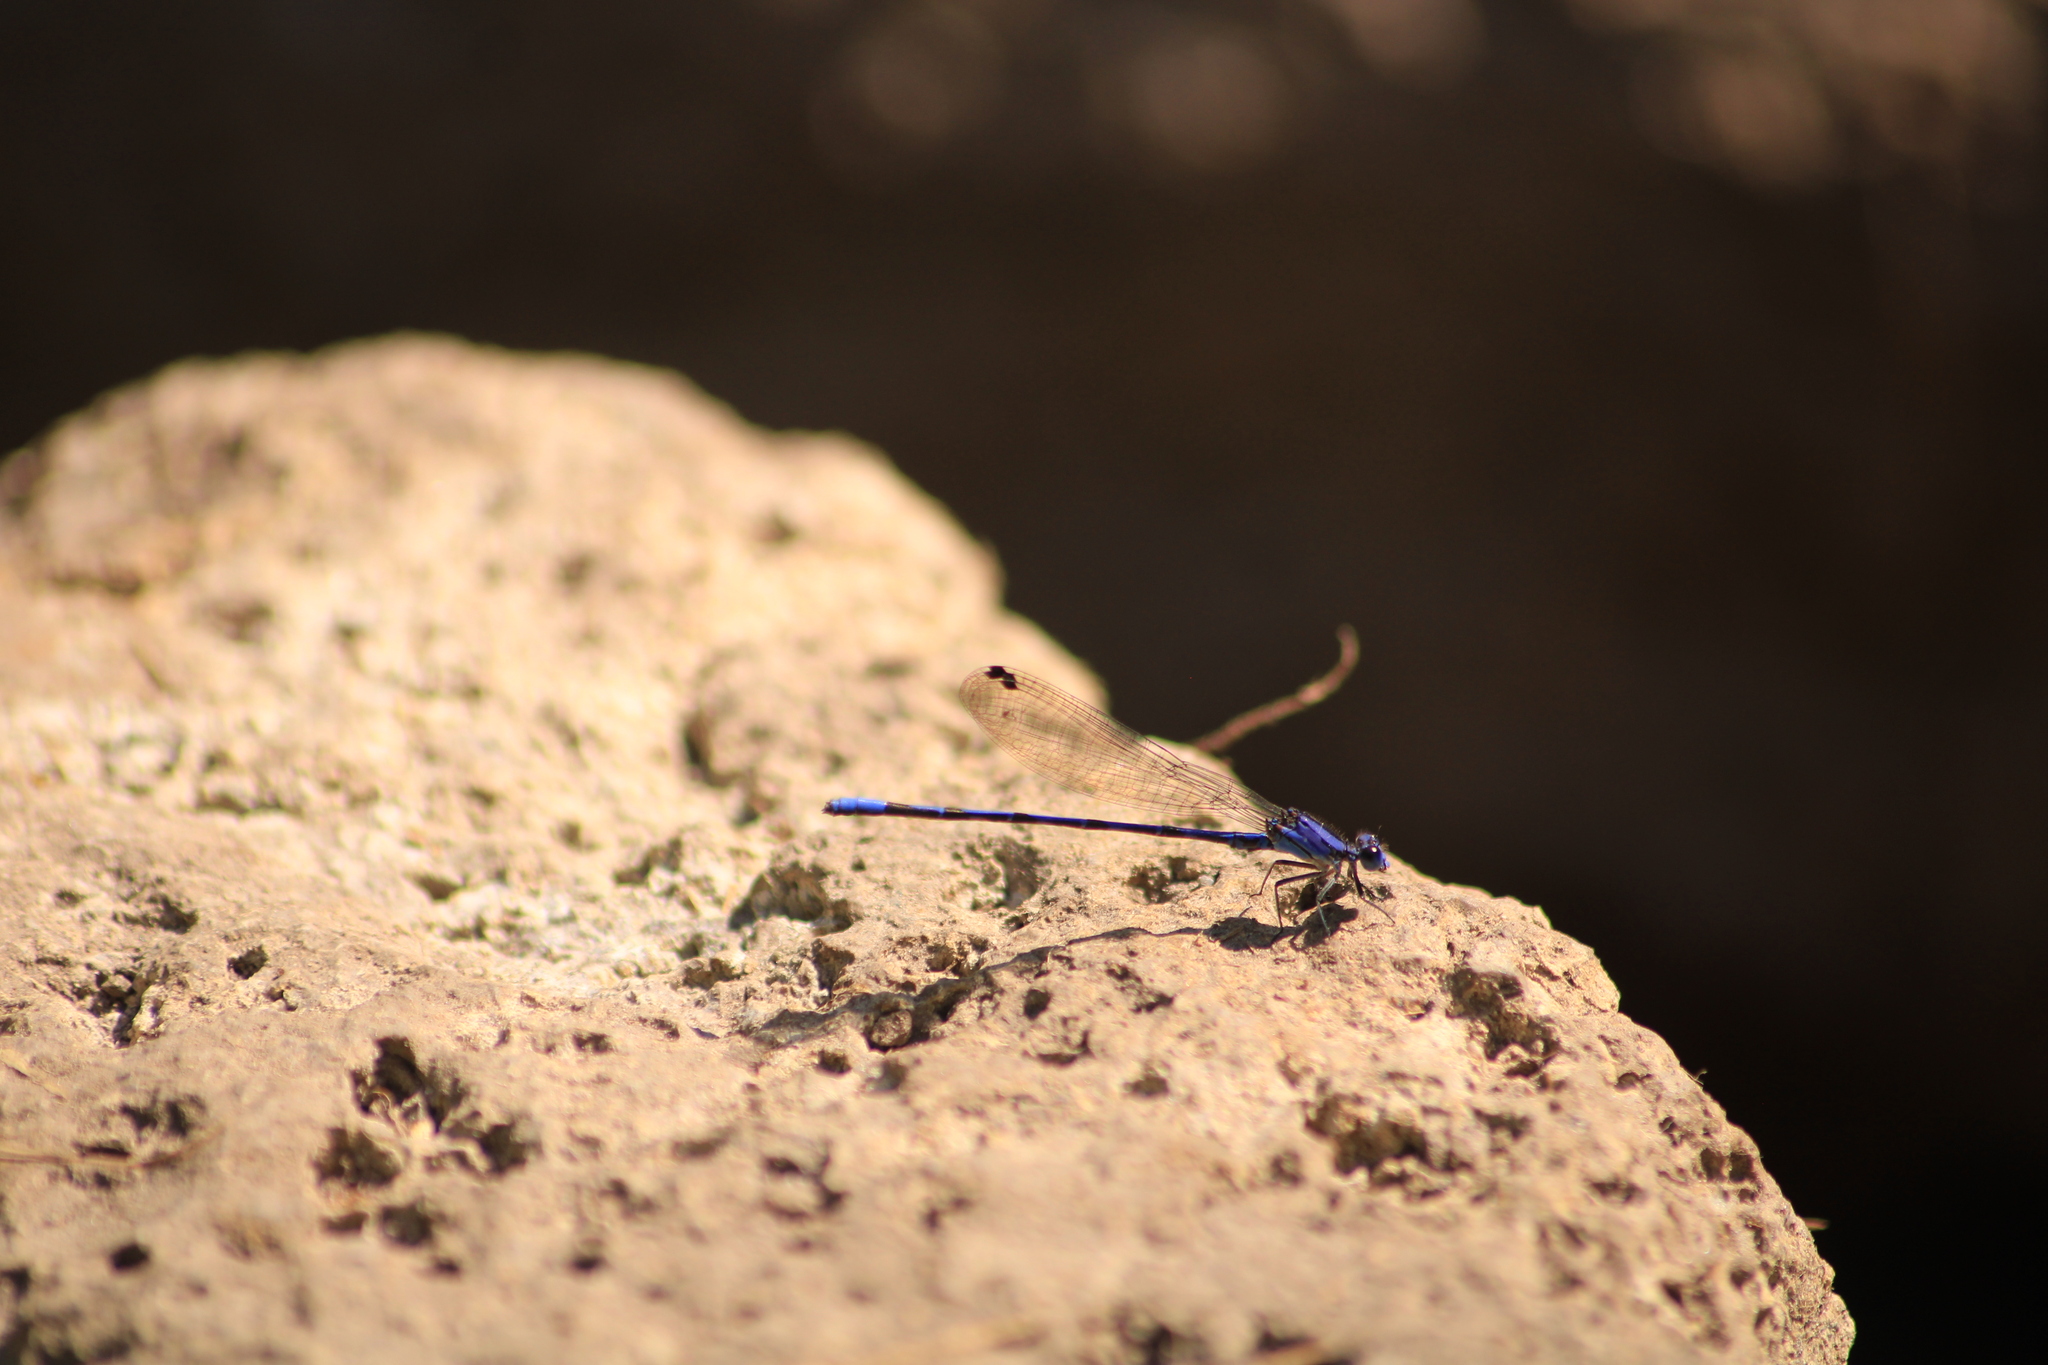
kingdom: Animalia
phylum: Arthropoda
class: Insecta
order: Odonata
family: Coenagrionidae
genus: Argia
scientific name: Argia extranea
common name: Spine-tipped dancer
